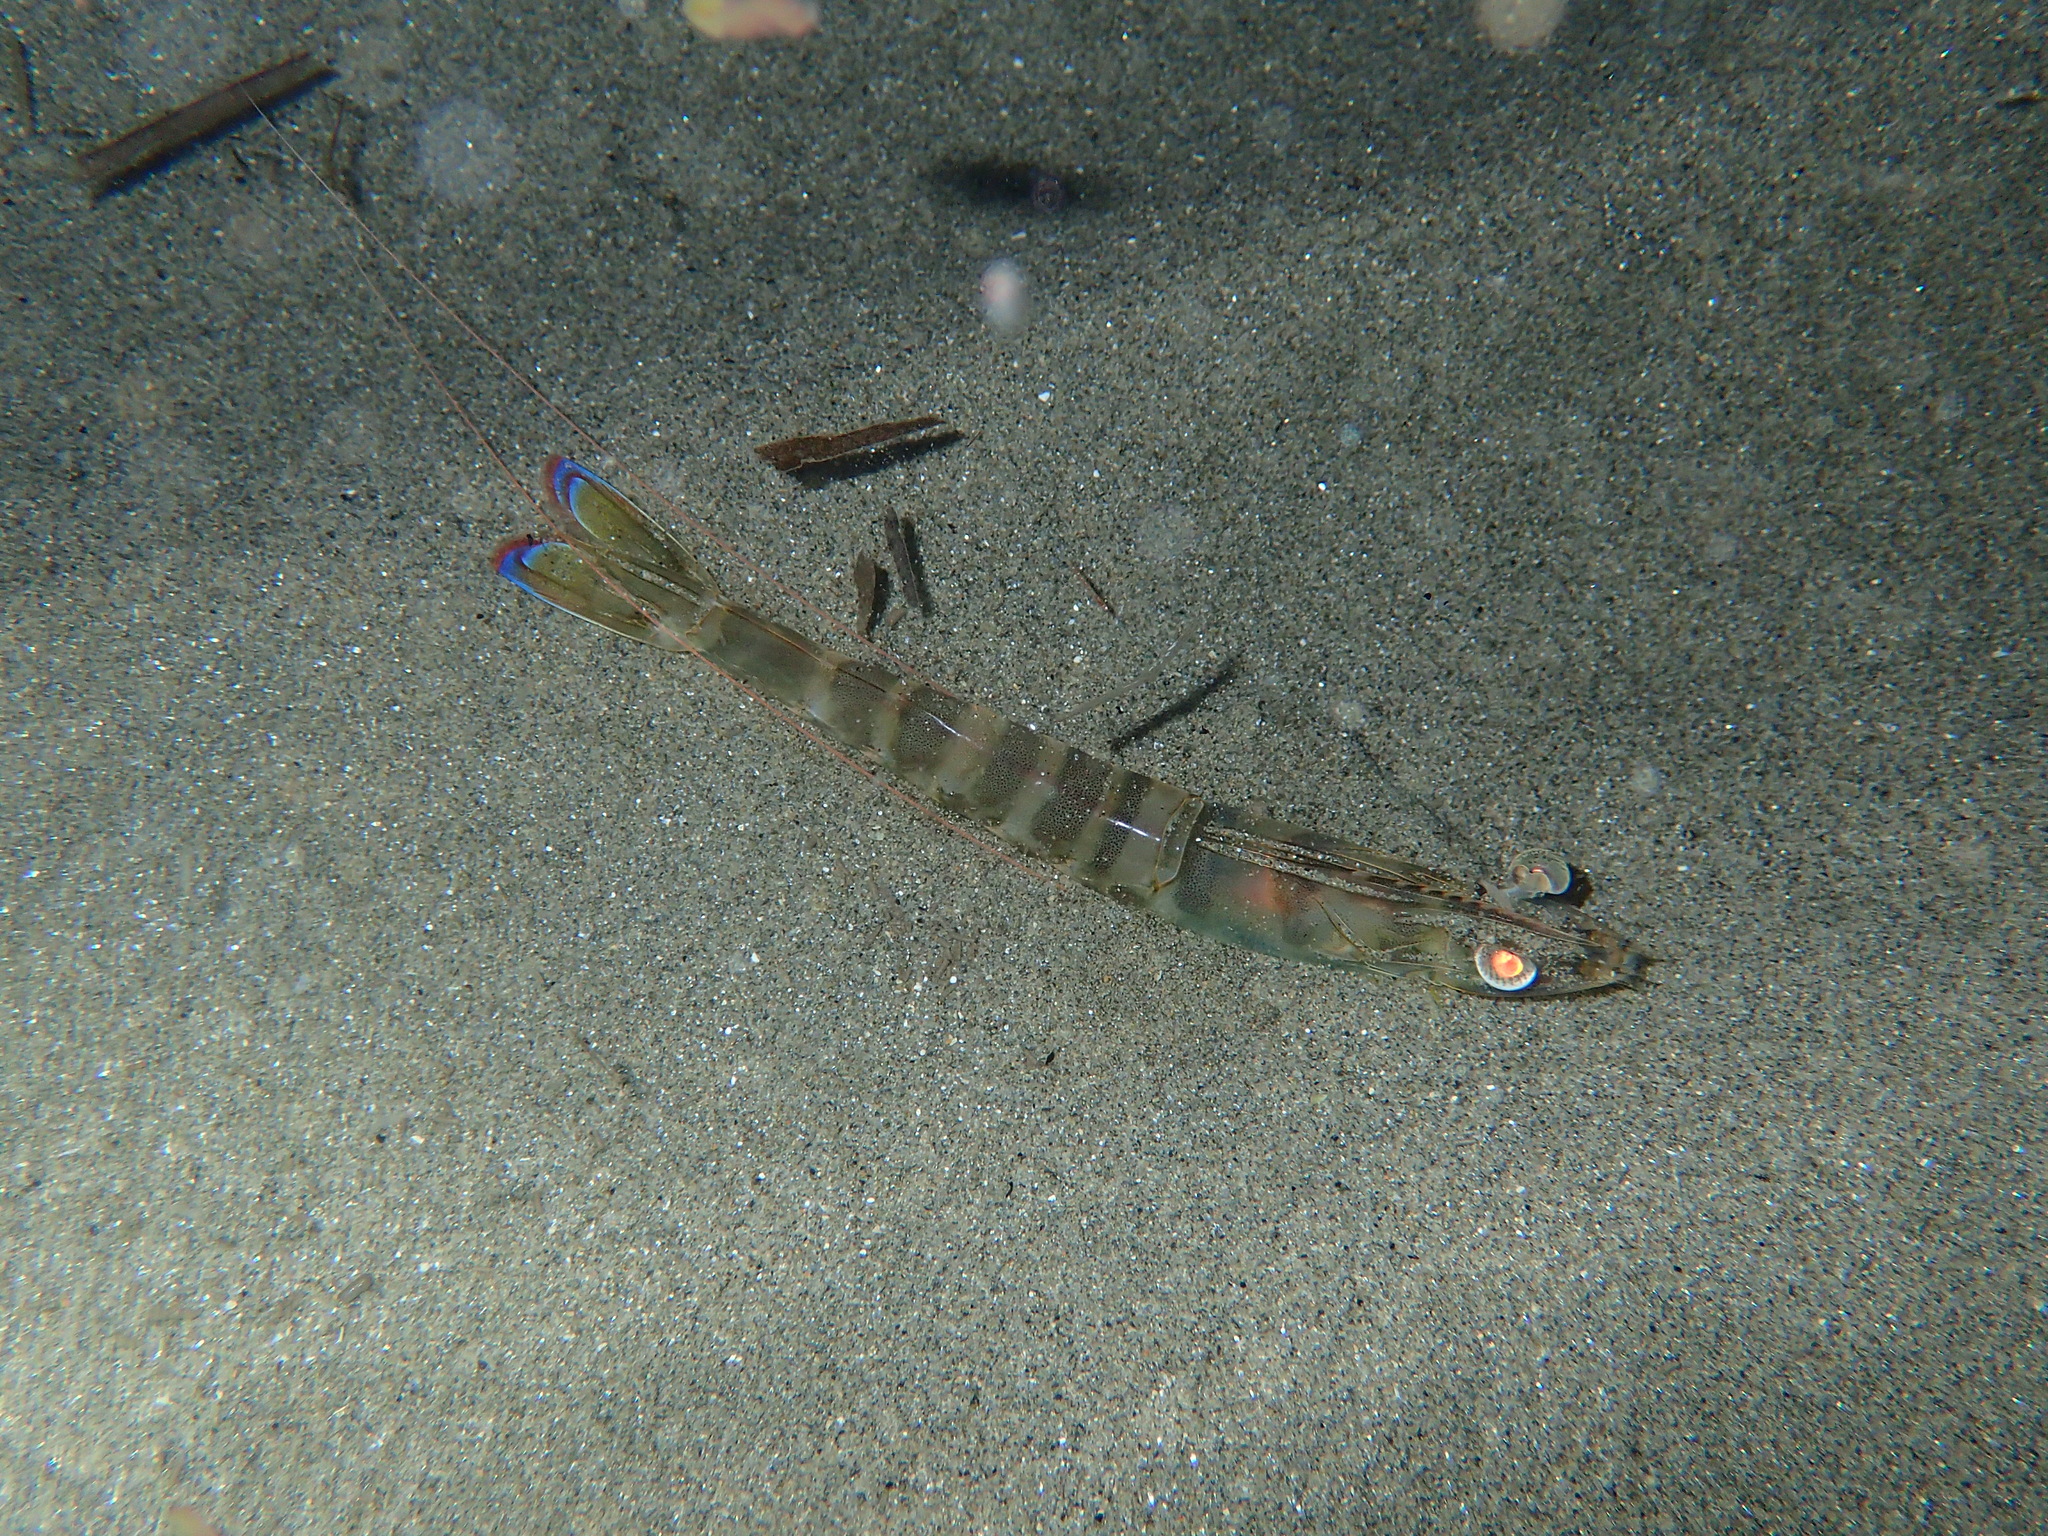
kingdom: Animalia
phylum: Arthropoda
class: Malacostraca
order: Decapoda
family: Penaeidae
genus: Penaeus
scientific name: Penaeus kerathurus
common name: Caramote prawn
